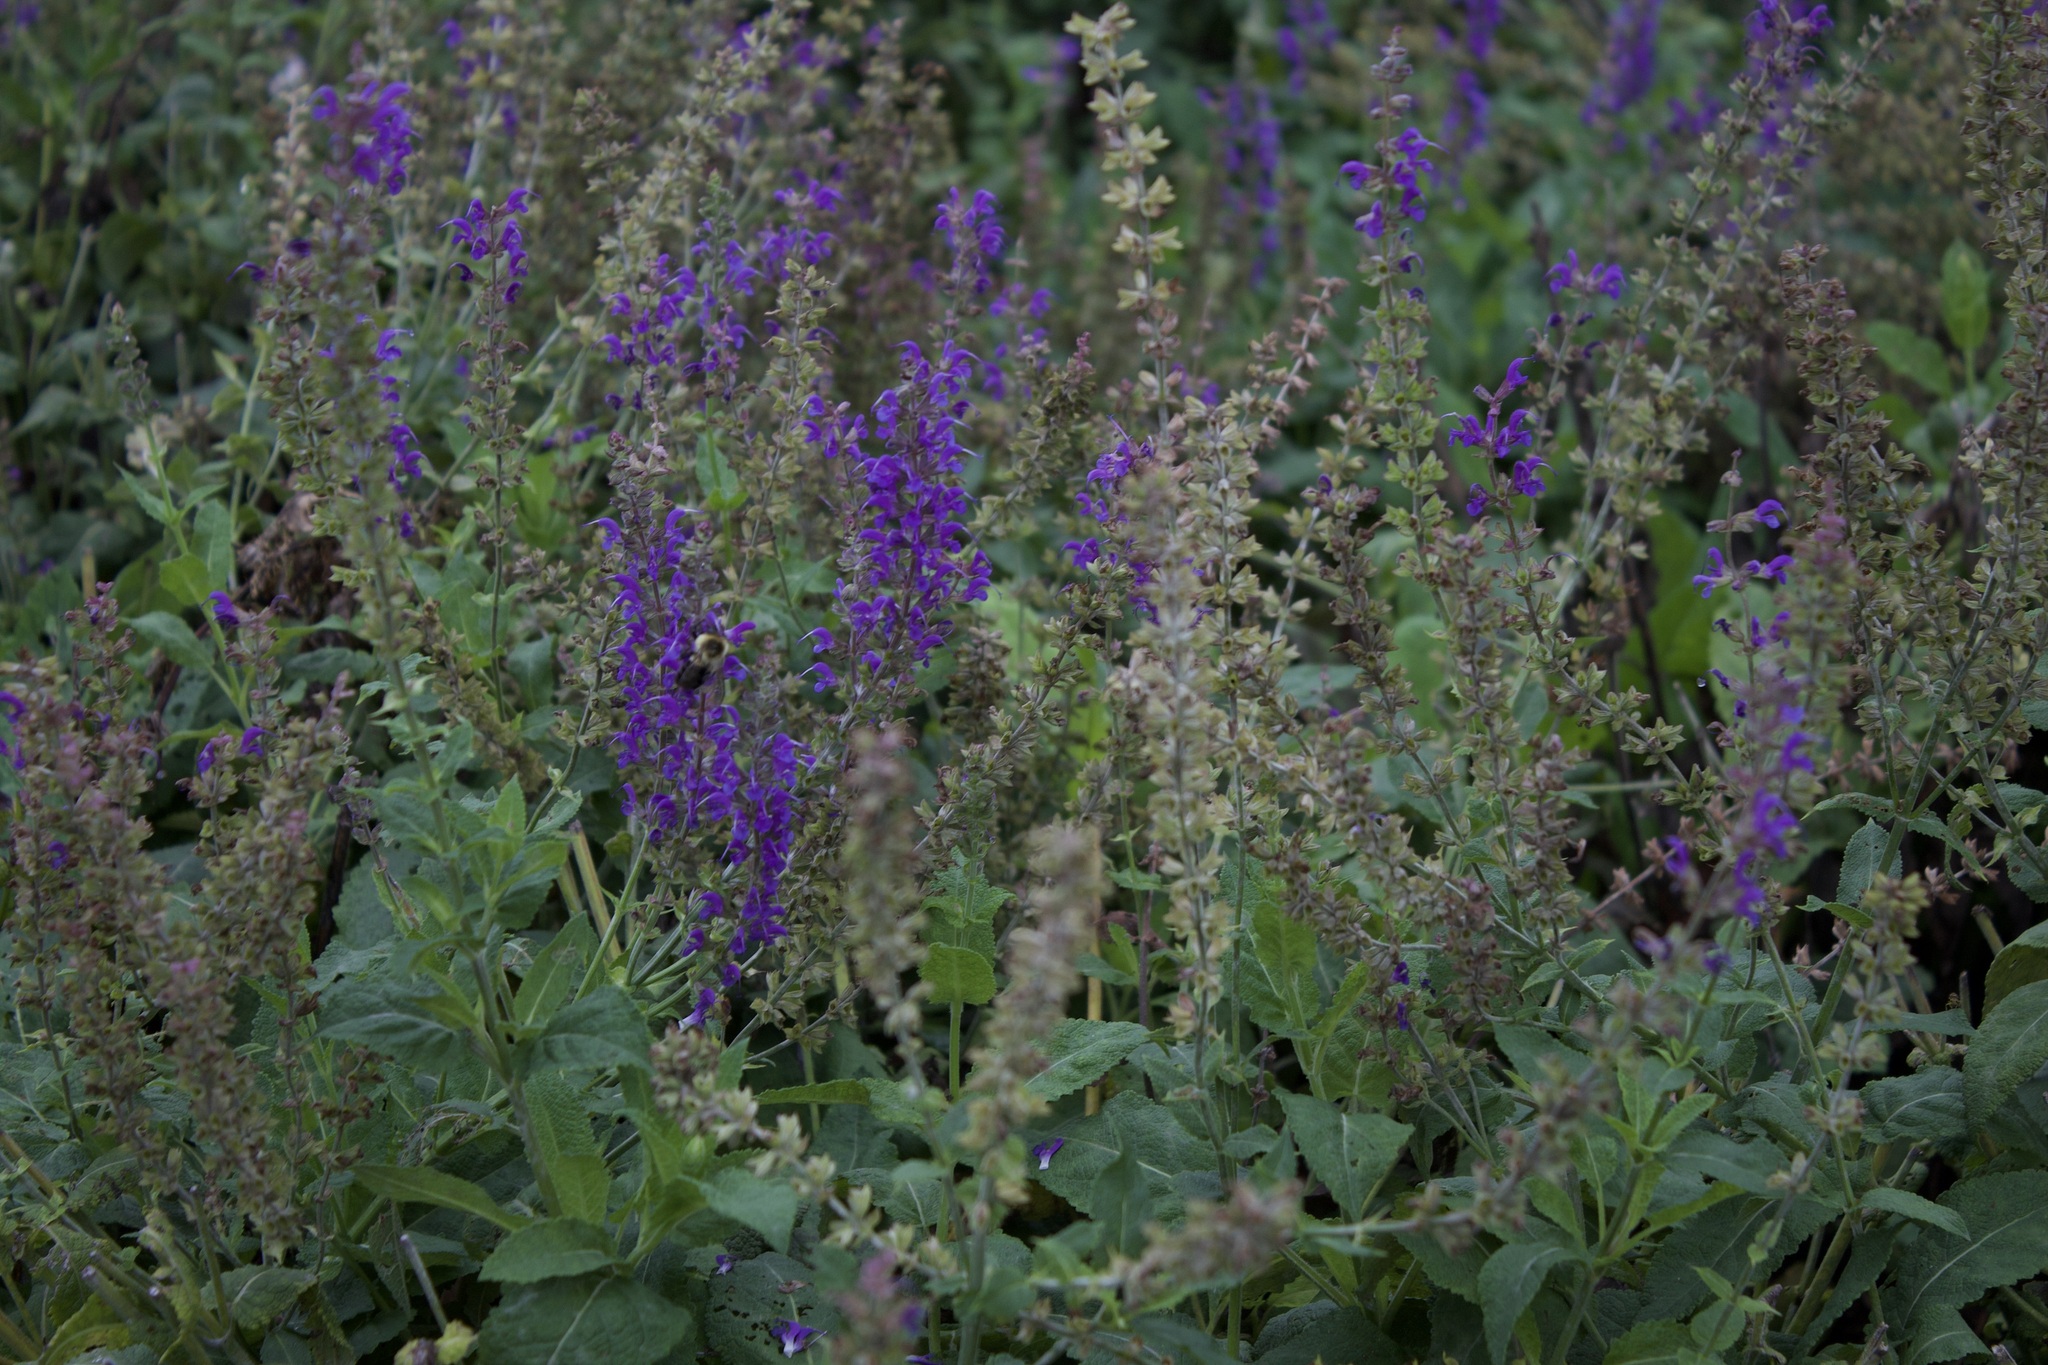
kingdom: Animalia
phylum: Arthropoda
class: Insecta
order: Hymenoptera
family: Apidae
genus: Bombus
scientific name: Bombus impatiens
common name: Common eastern bumble bee
